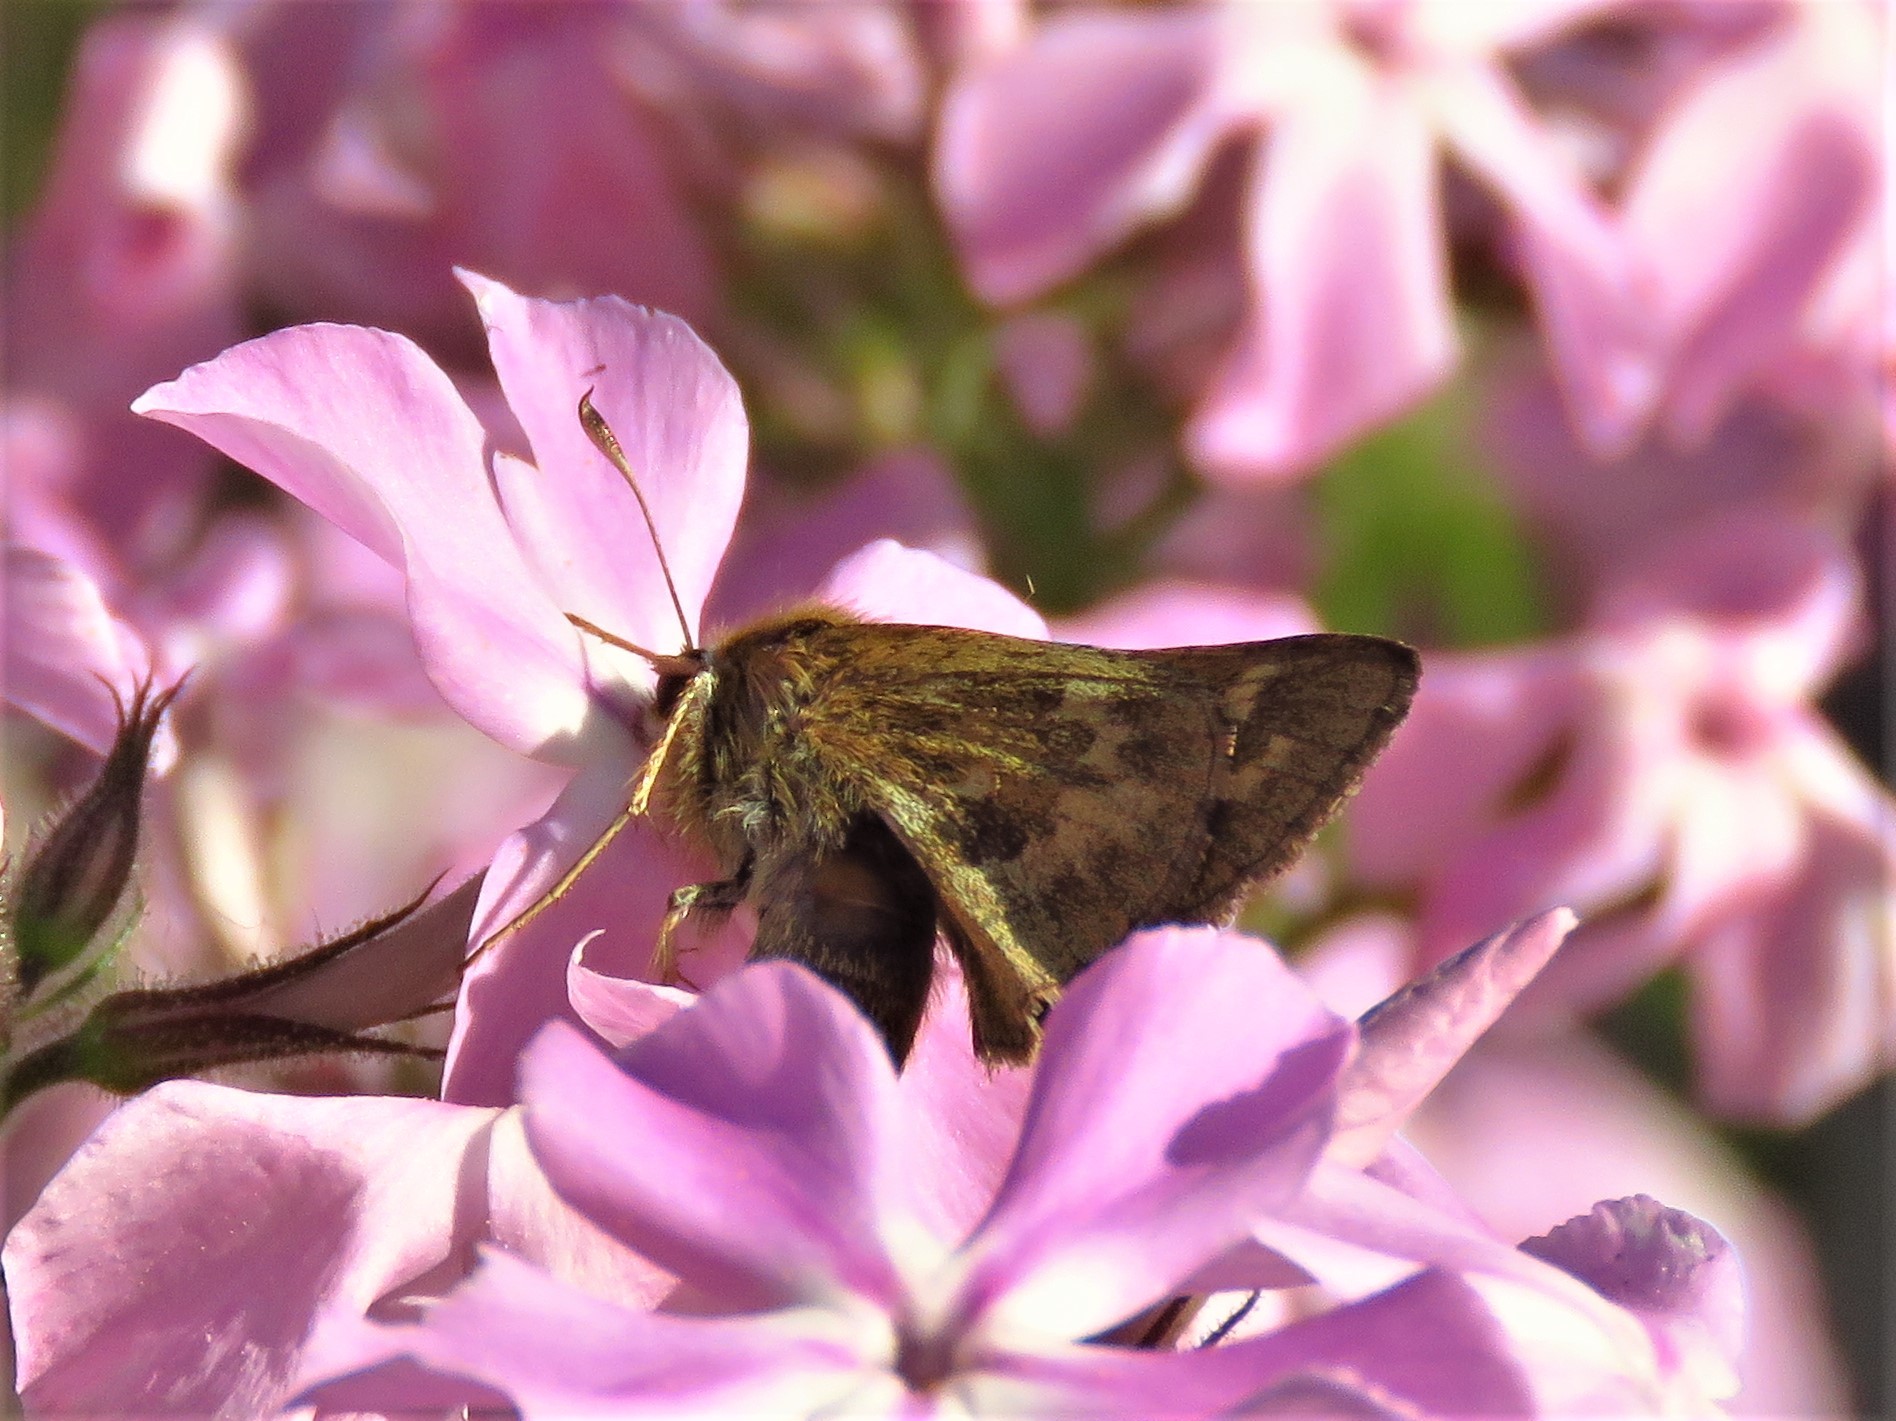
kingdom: Animalia
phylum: Arthropoda
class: Insecta
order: Lepidoptera
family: Hesperiidae
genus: Atalopedes
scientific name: Atalopedes
